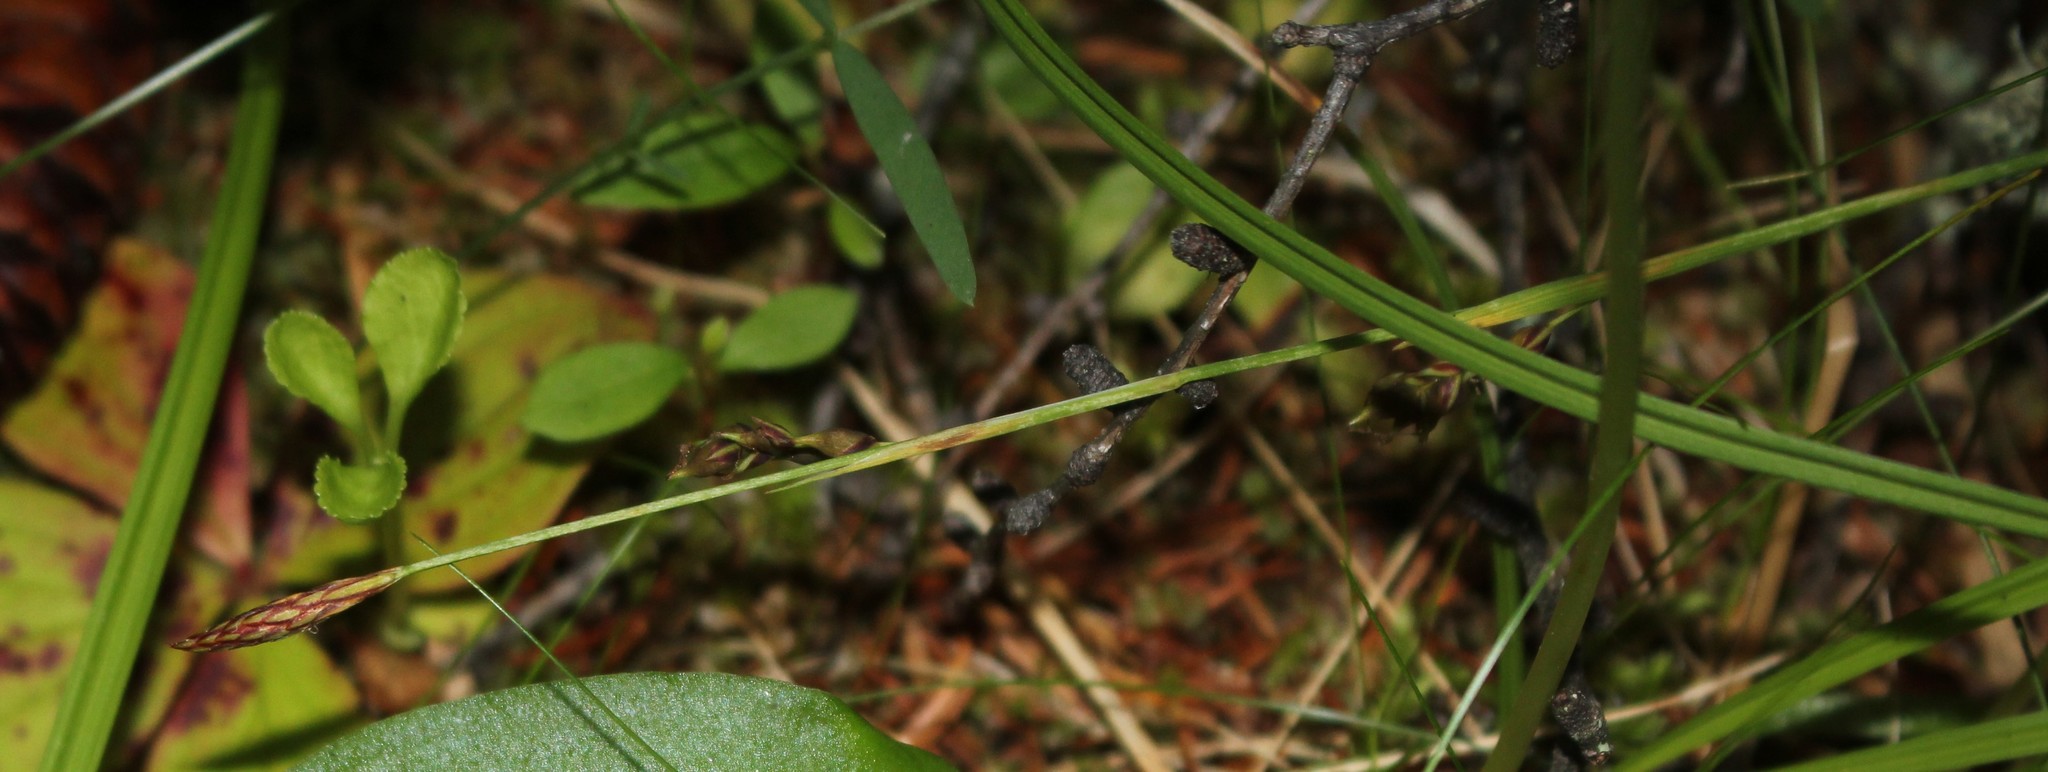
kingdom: Plantae
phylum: Tracheophyta
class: Liliopsida
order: Poales
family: Cyperaceae
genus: Carex
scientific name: Carex vaginata
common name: Sheathed sedge
